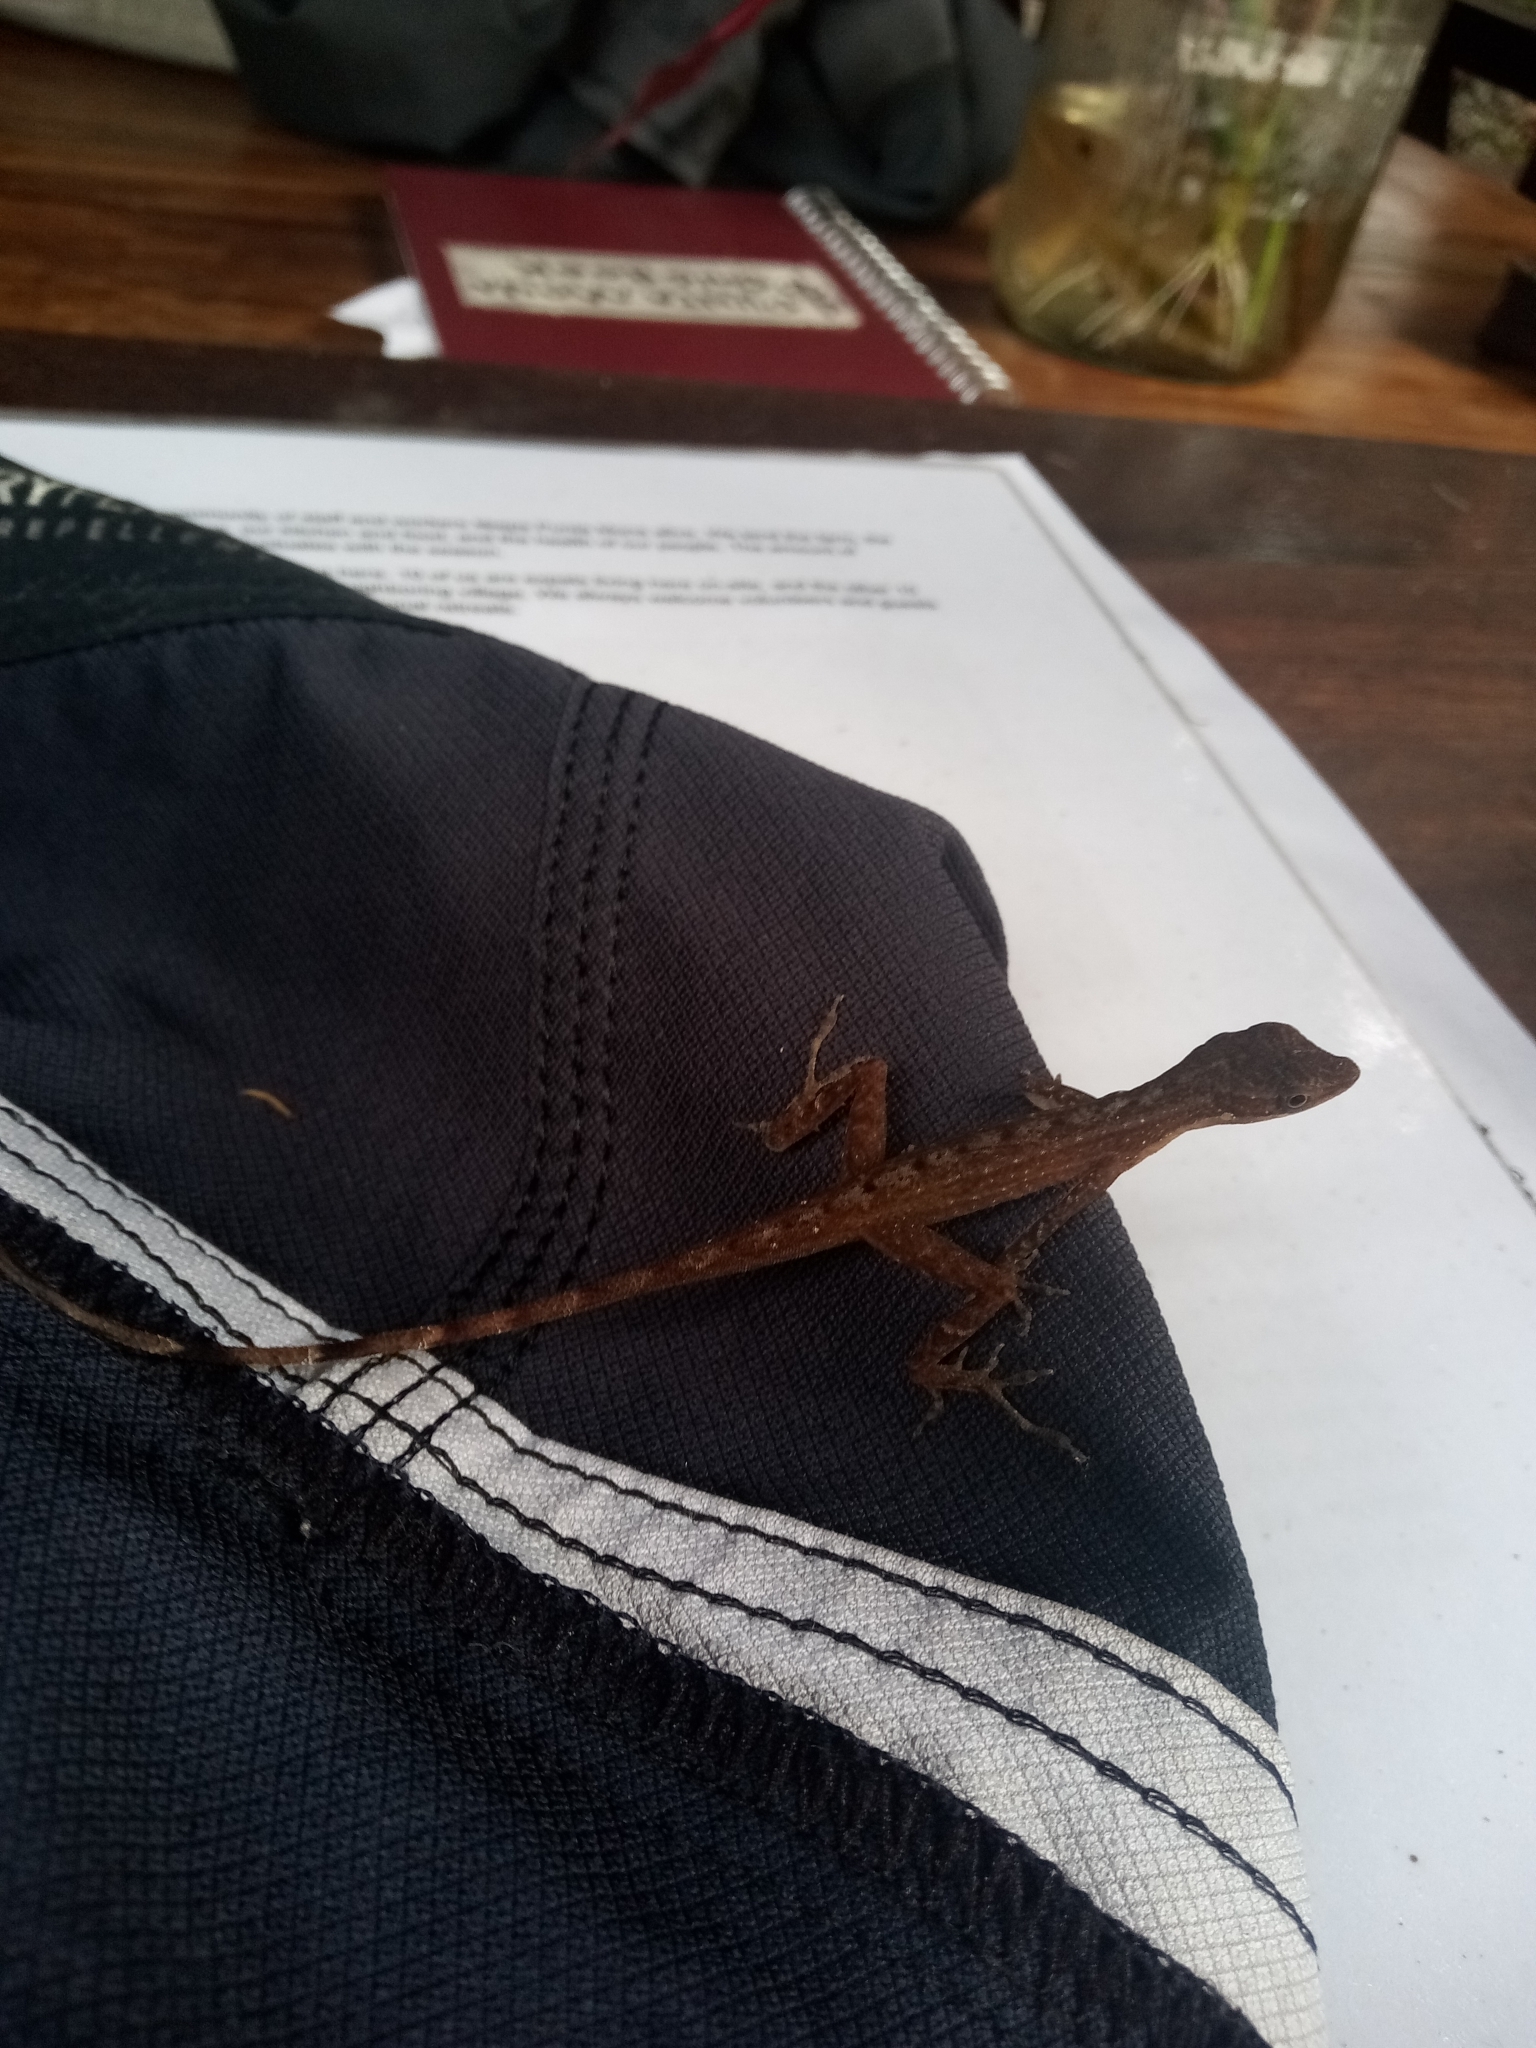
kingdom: Animalia
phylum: Chordata
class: Squamata
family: Dactyloidae
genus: Anolis
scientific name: Anolis limifrons
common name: Border anole
